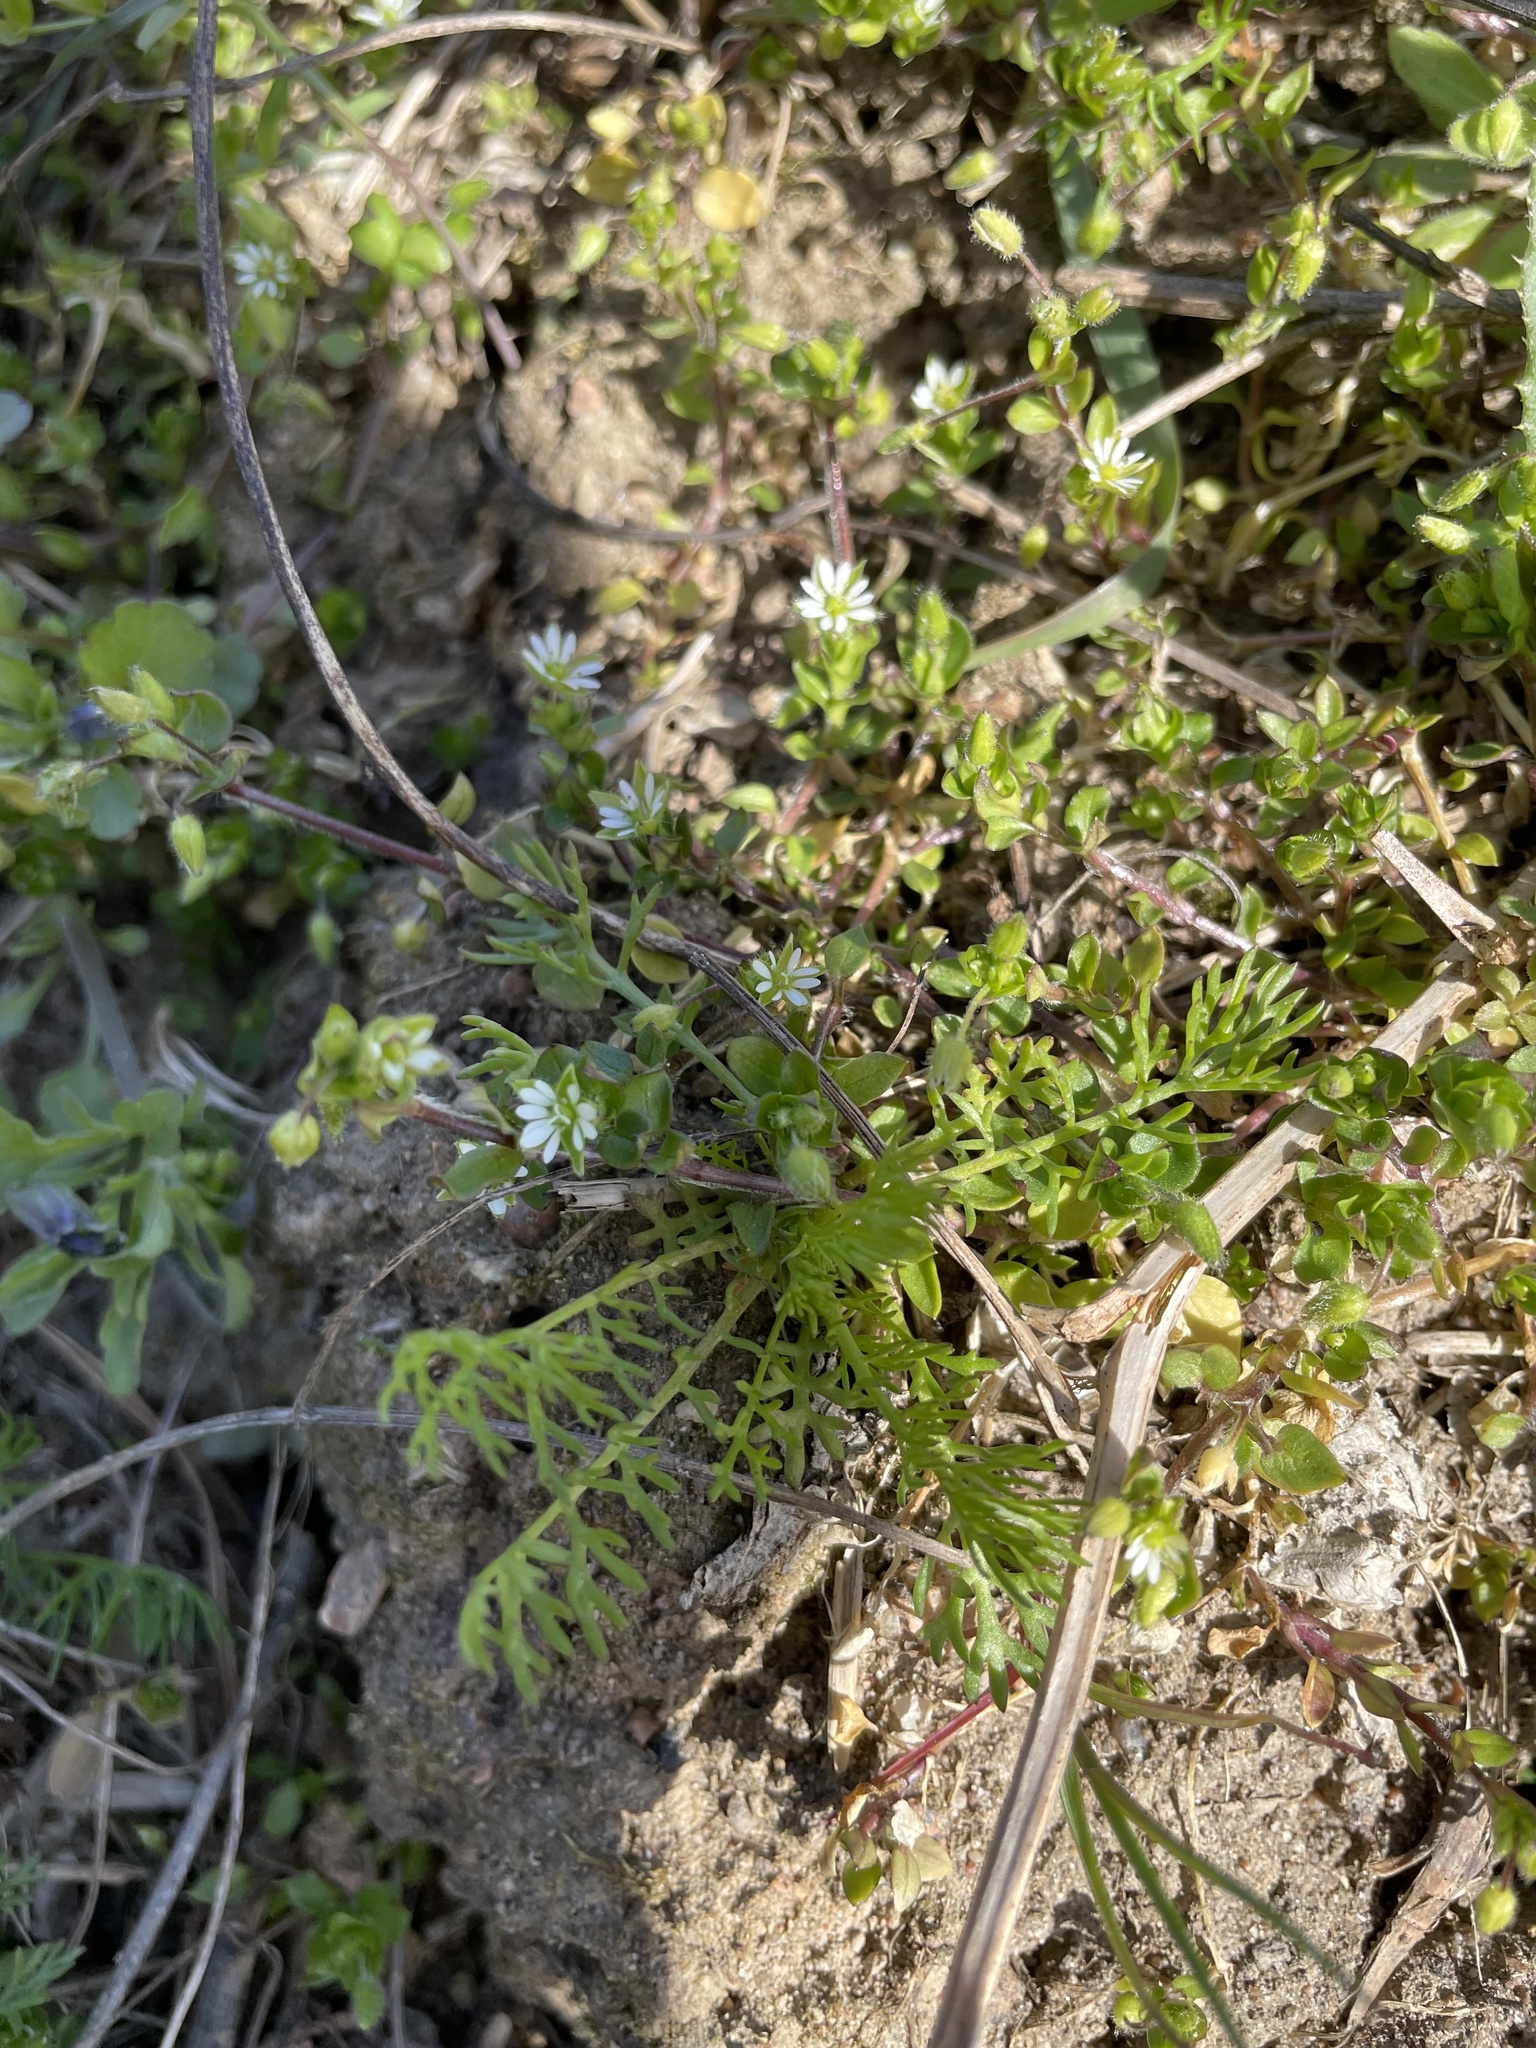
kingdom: Plantae
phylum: Tracheophyta
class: Magnoliopsida
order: Caryophyllales
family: Caryophyllaceae
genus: Stellaria
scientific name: Stellaria media
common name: Common chickweed
